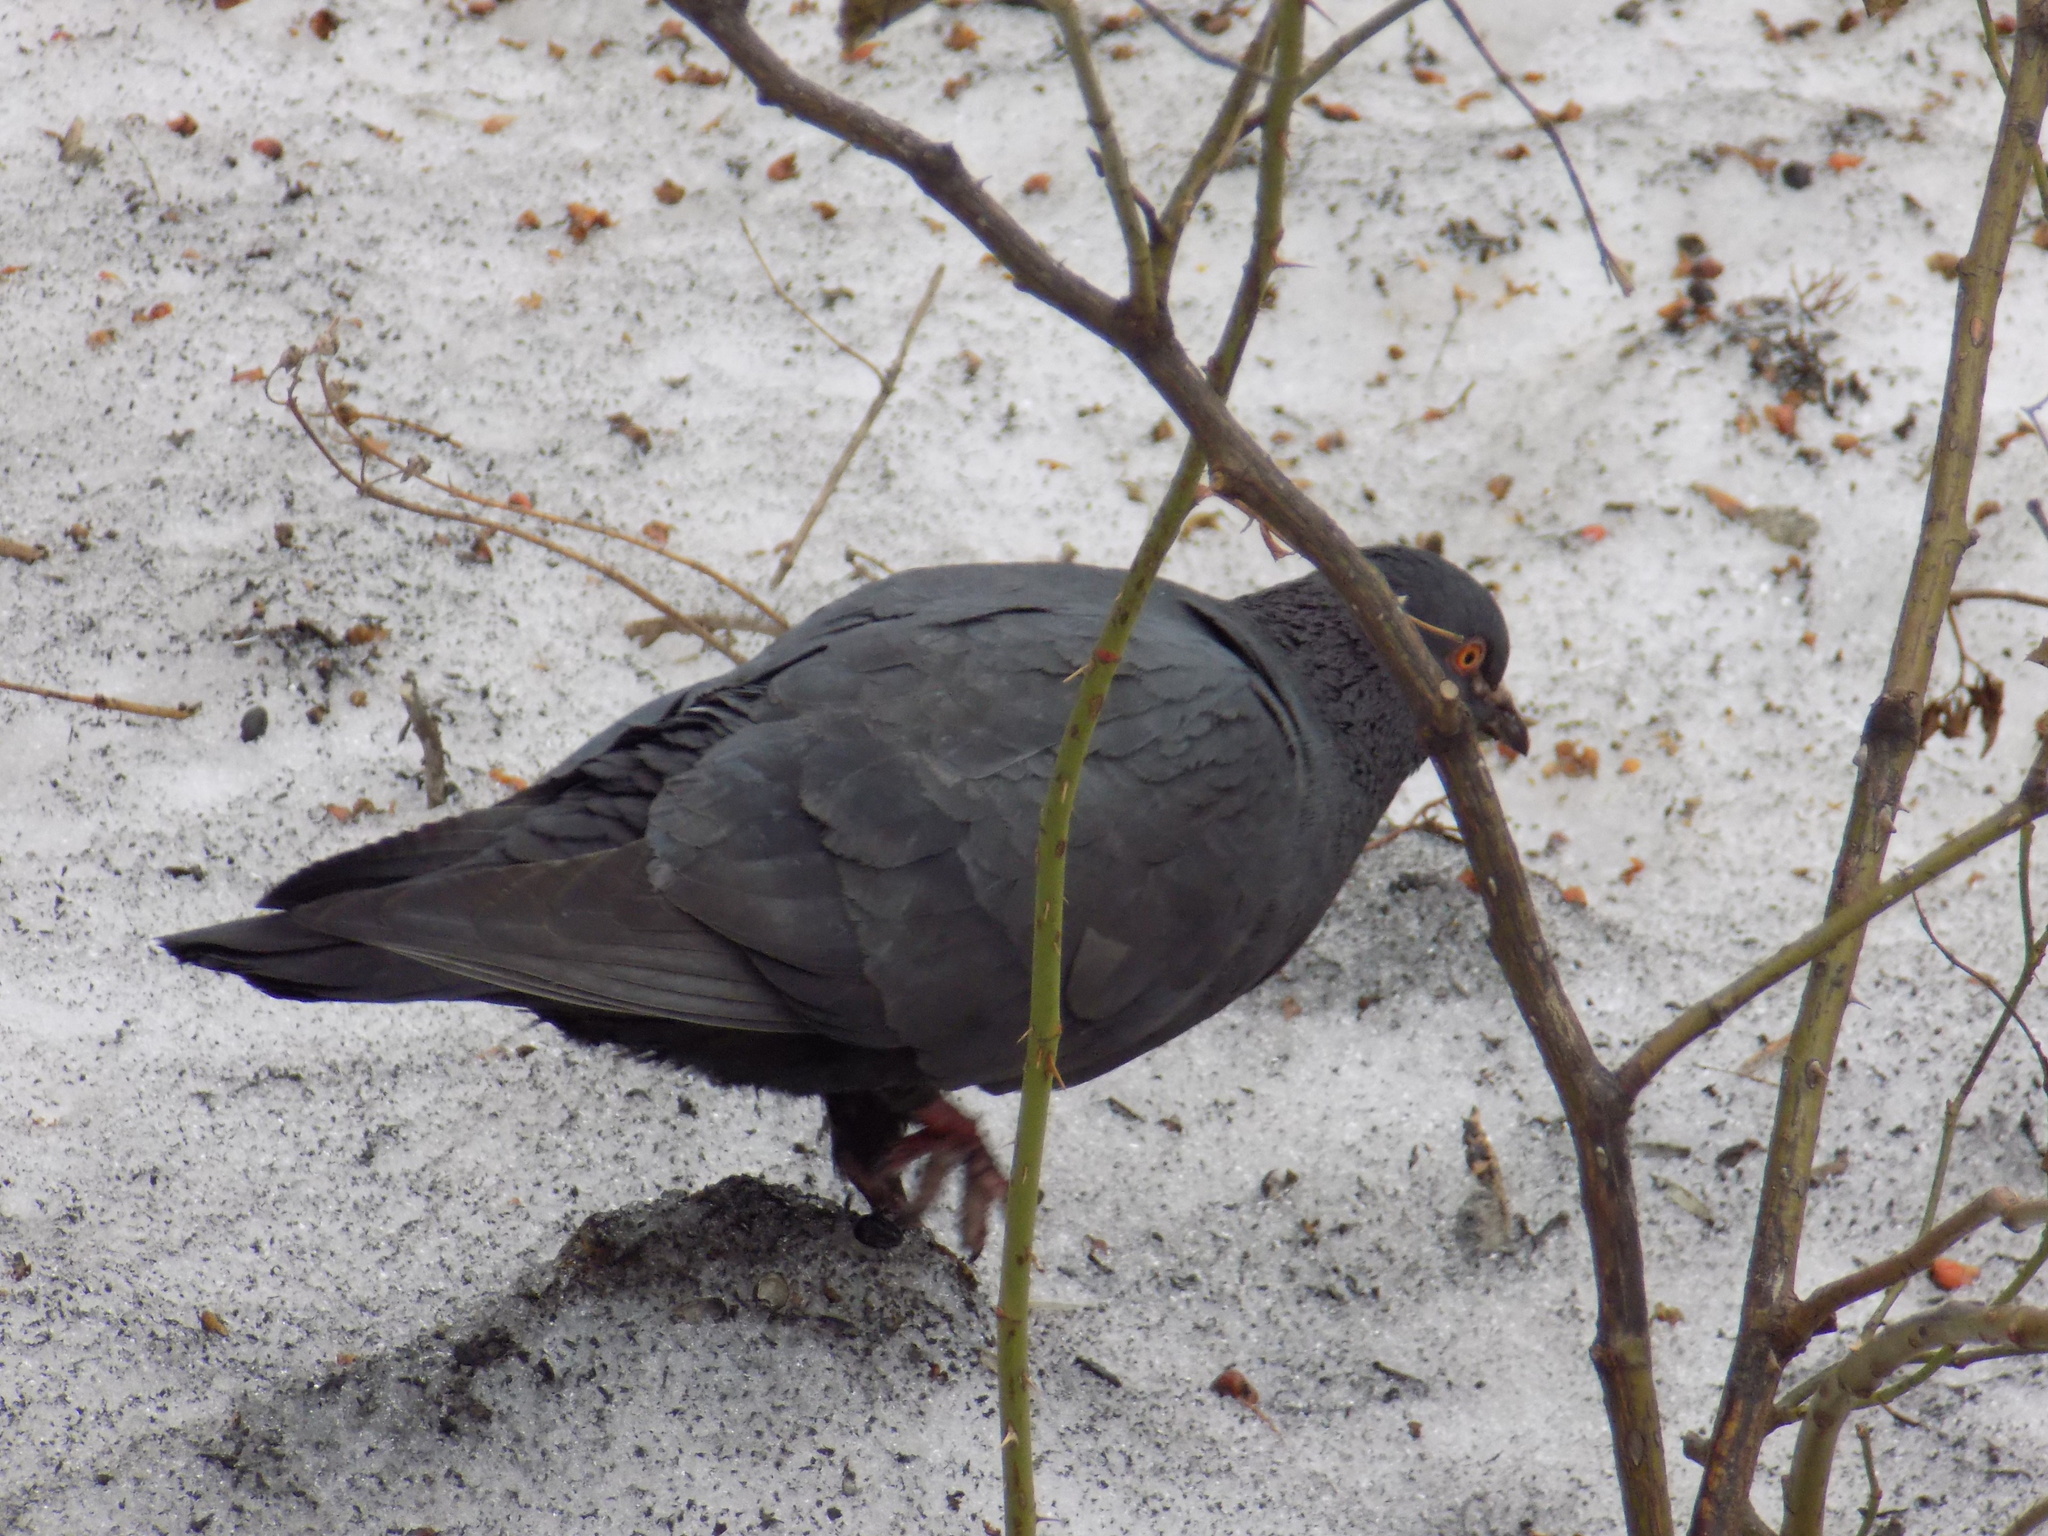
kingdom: Animalia
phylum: Chordata
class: Aves
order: Columbiformes
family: Columbidae
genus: Columba
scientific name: Columba livia
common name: Rock pigeon
